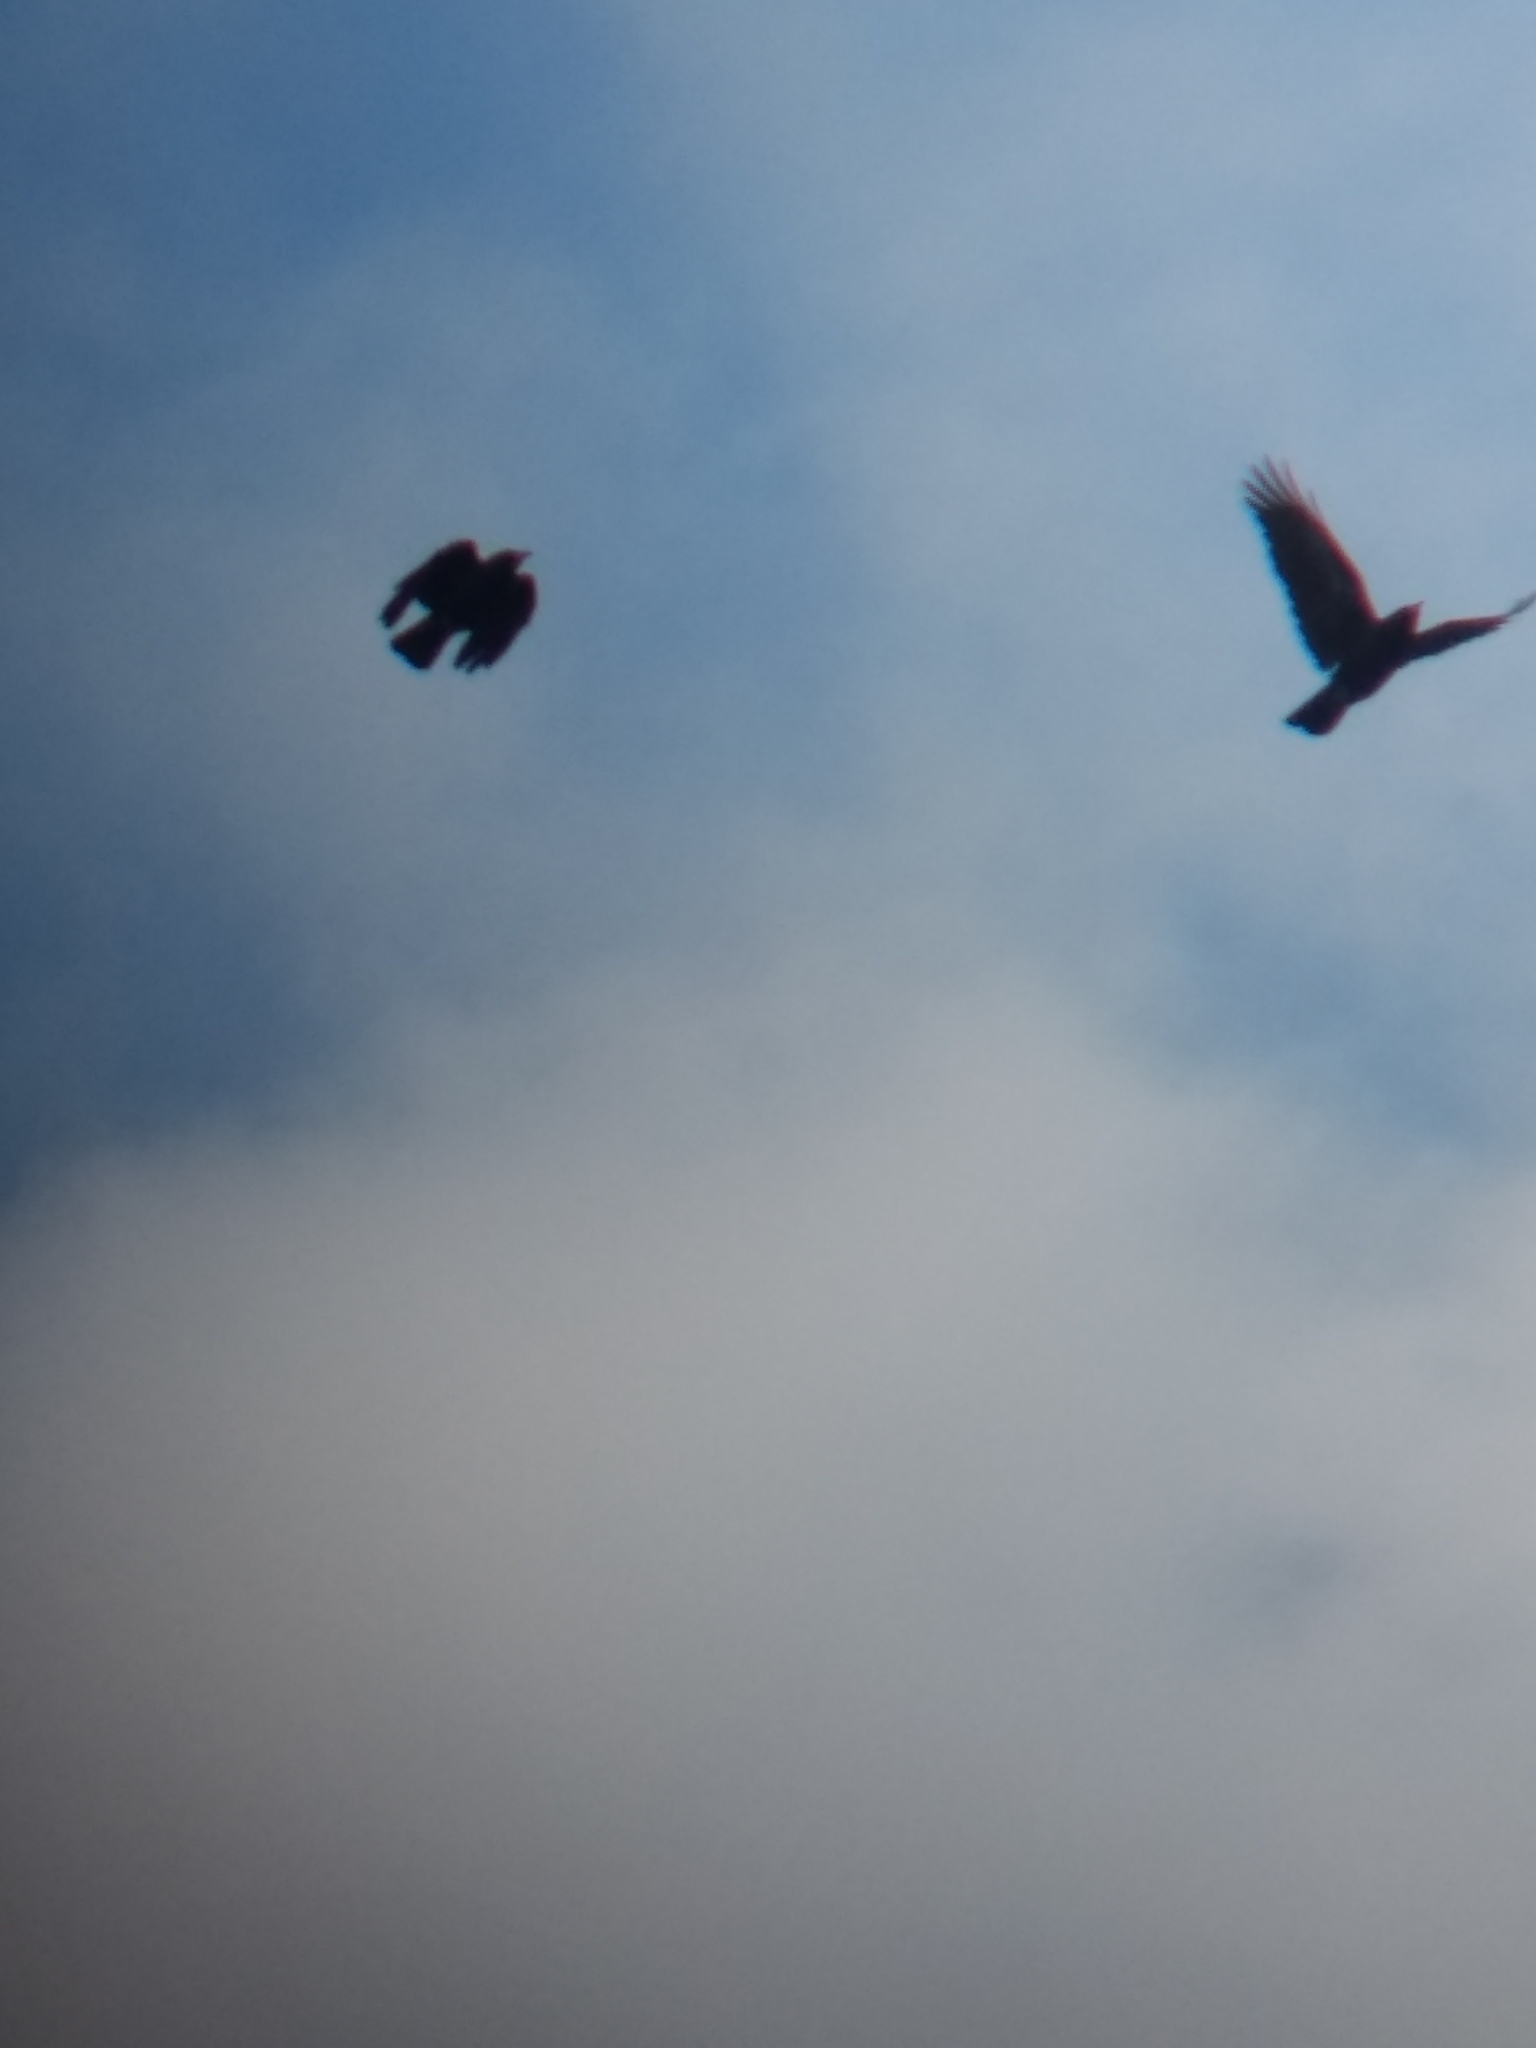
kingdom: Animalia
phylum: Chordata
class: Aves
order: Passeriformes
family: Corvidae
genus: Corvus
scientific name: Corvus brachyrhynchos
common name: American crow
